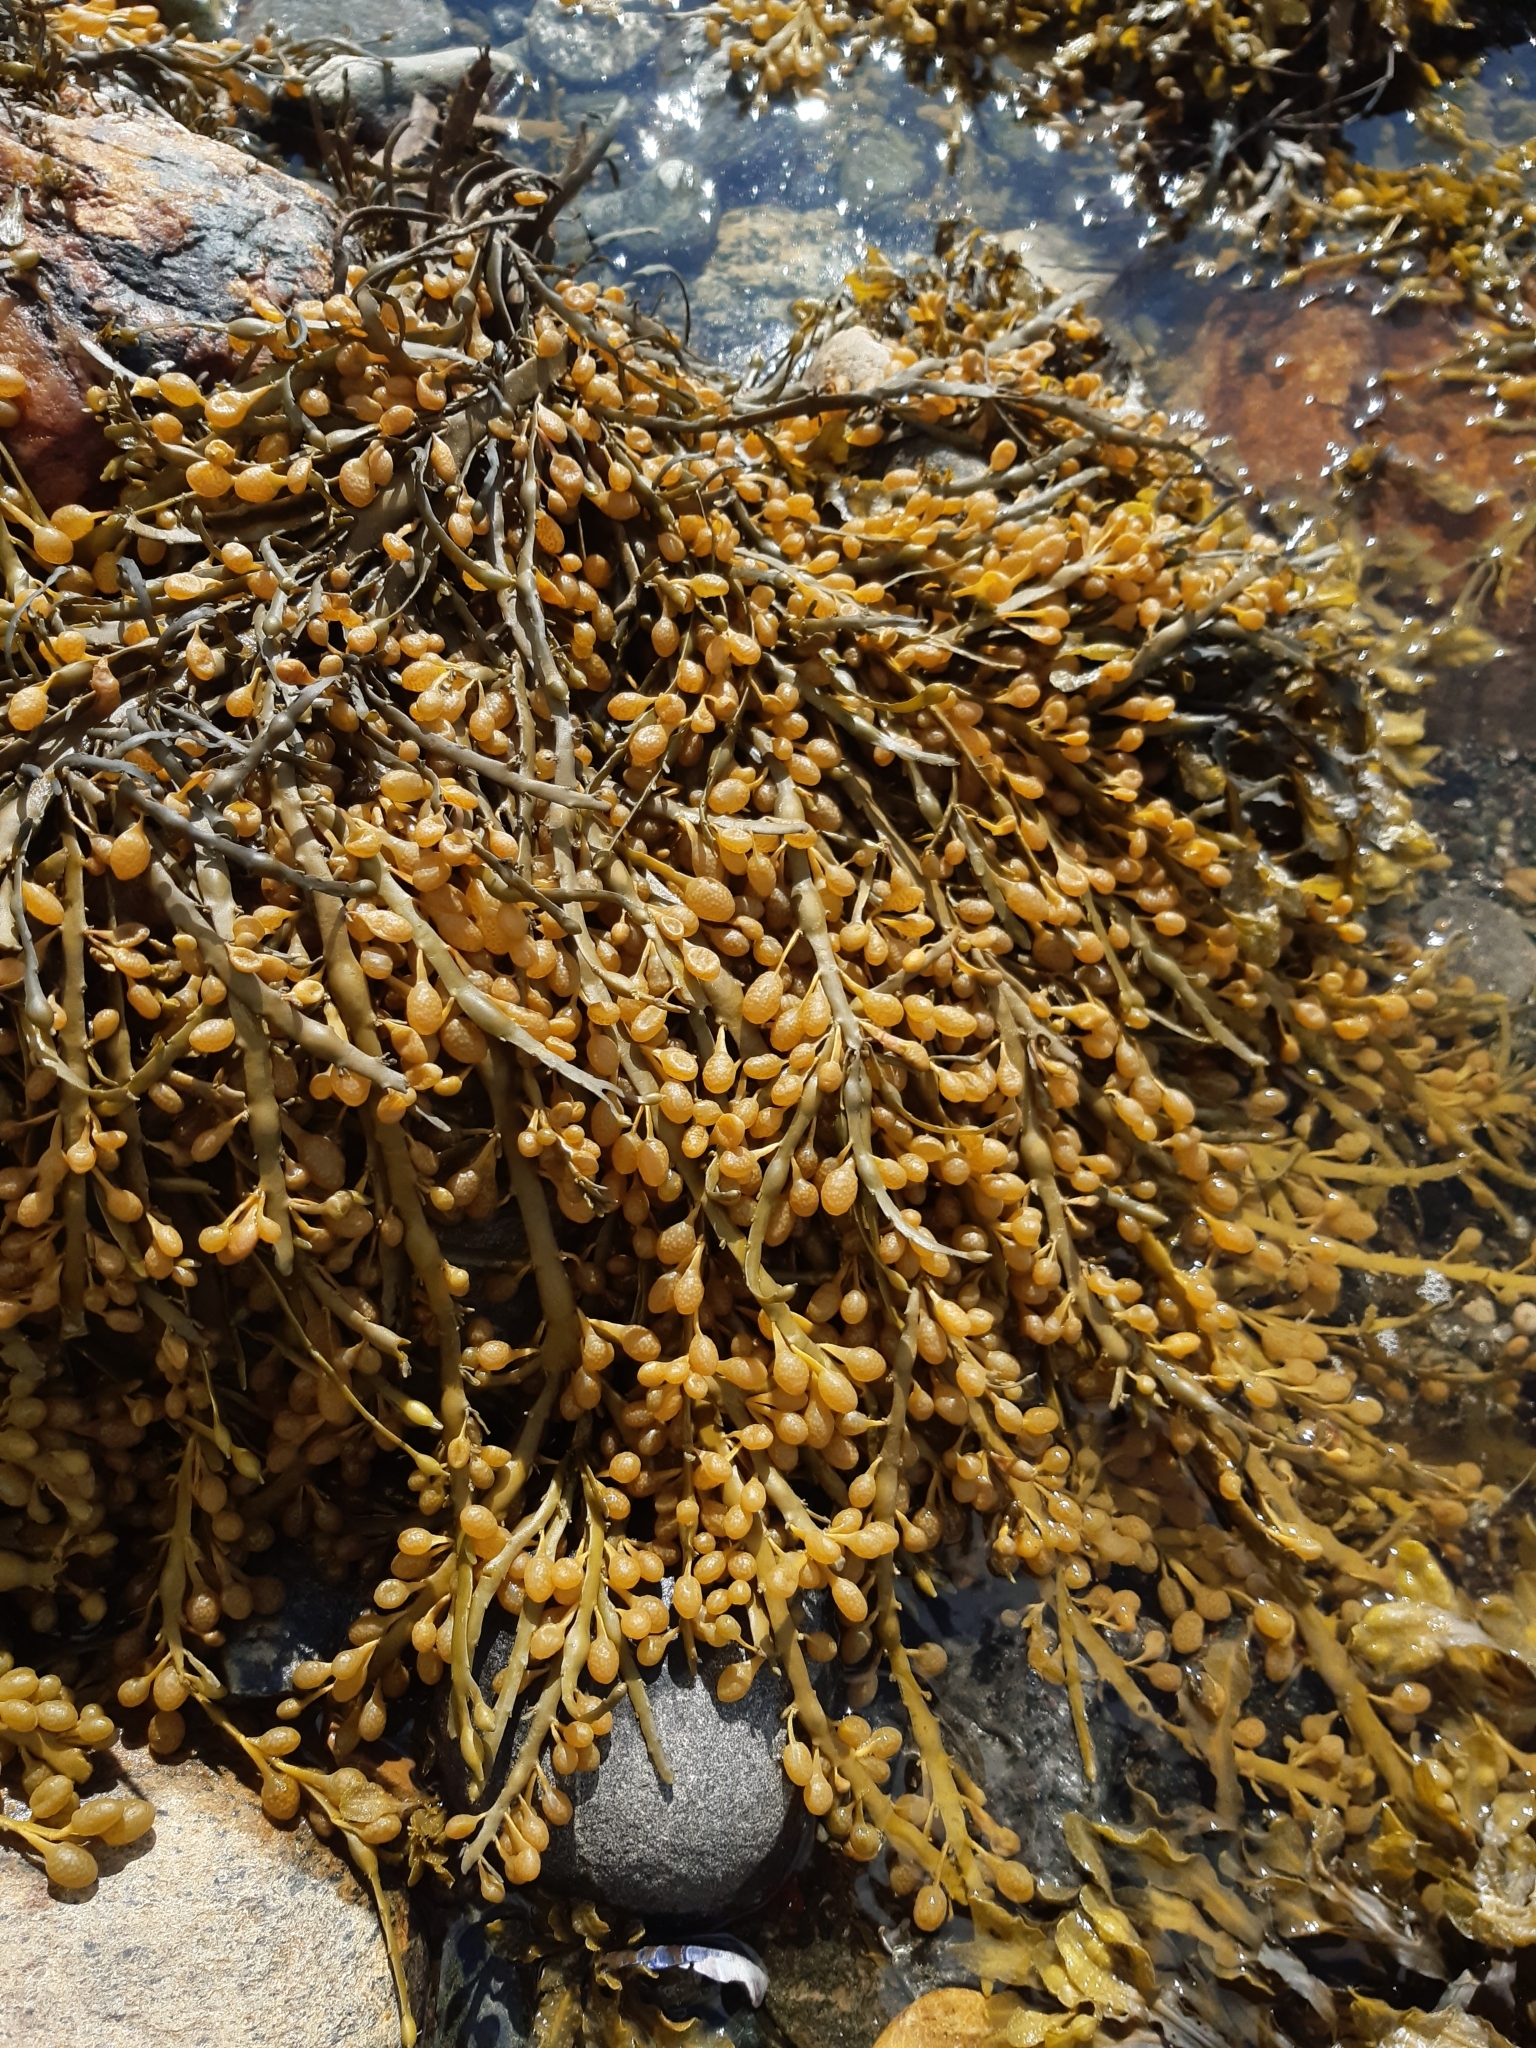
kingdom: Chromista
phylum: Ochrophyta
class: Phaeophyceae
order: Fucales
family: Fucaceae
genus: Ascophyllum
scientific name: Ascophyllum nodosum
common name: Knotted wrack
